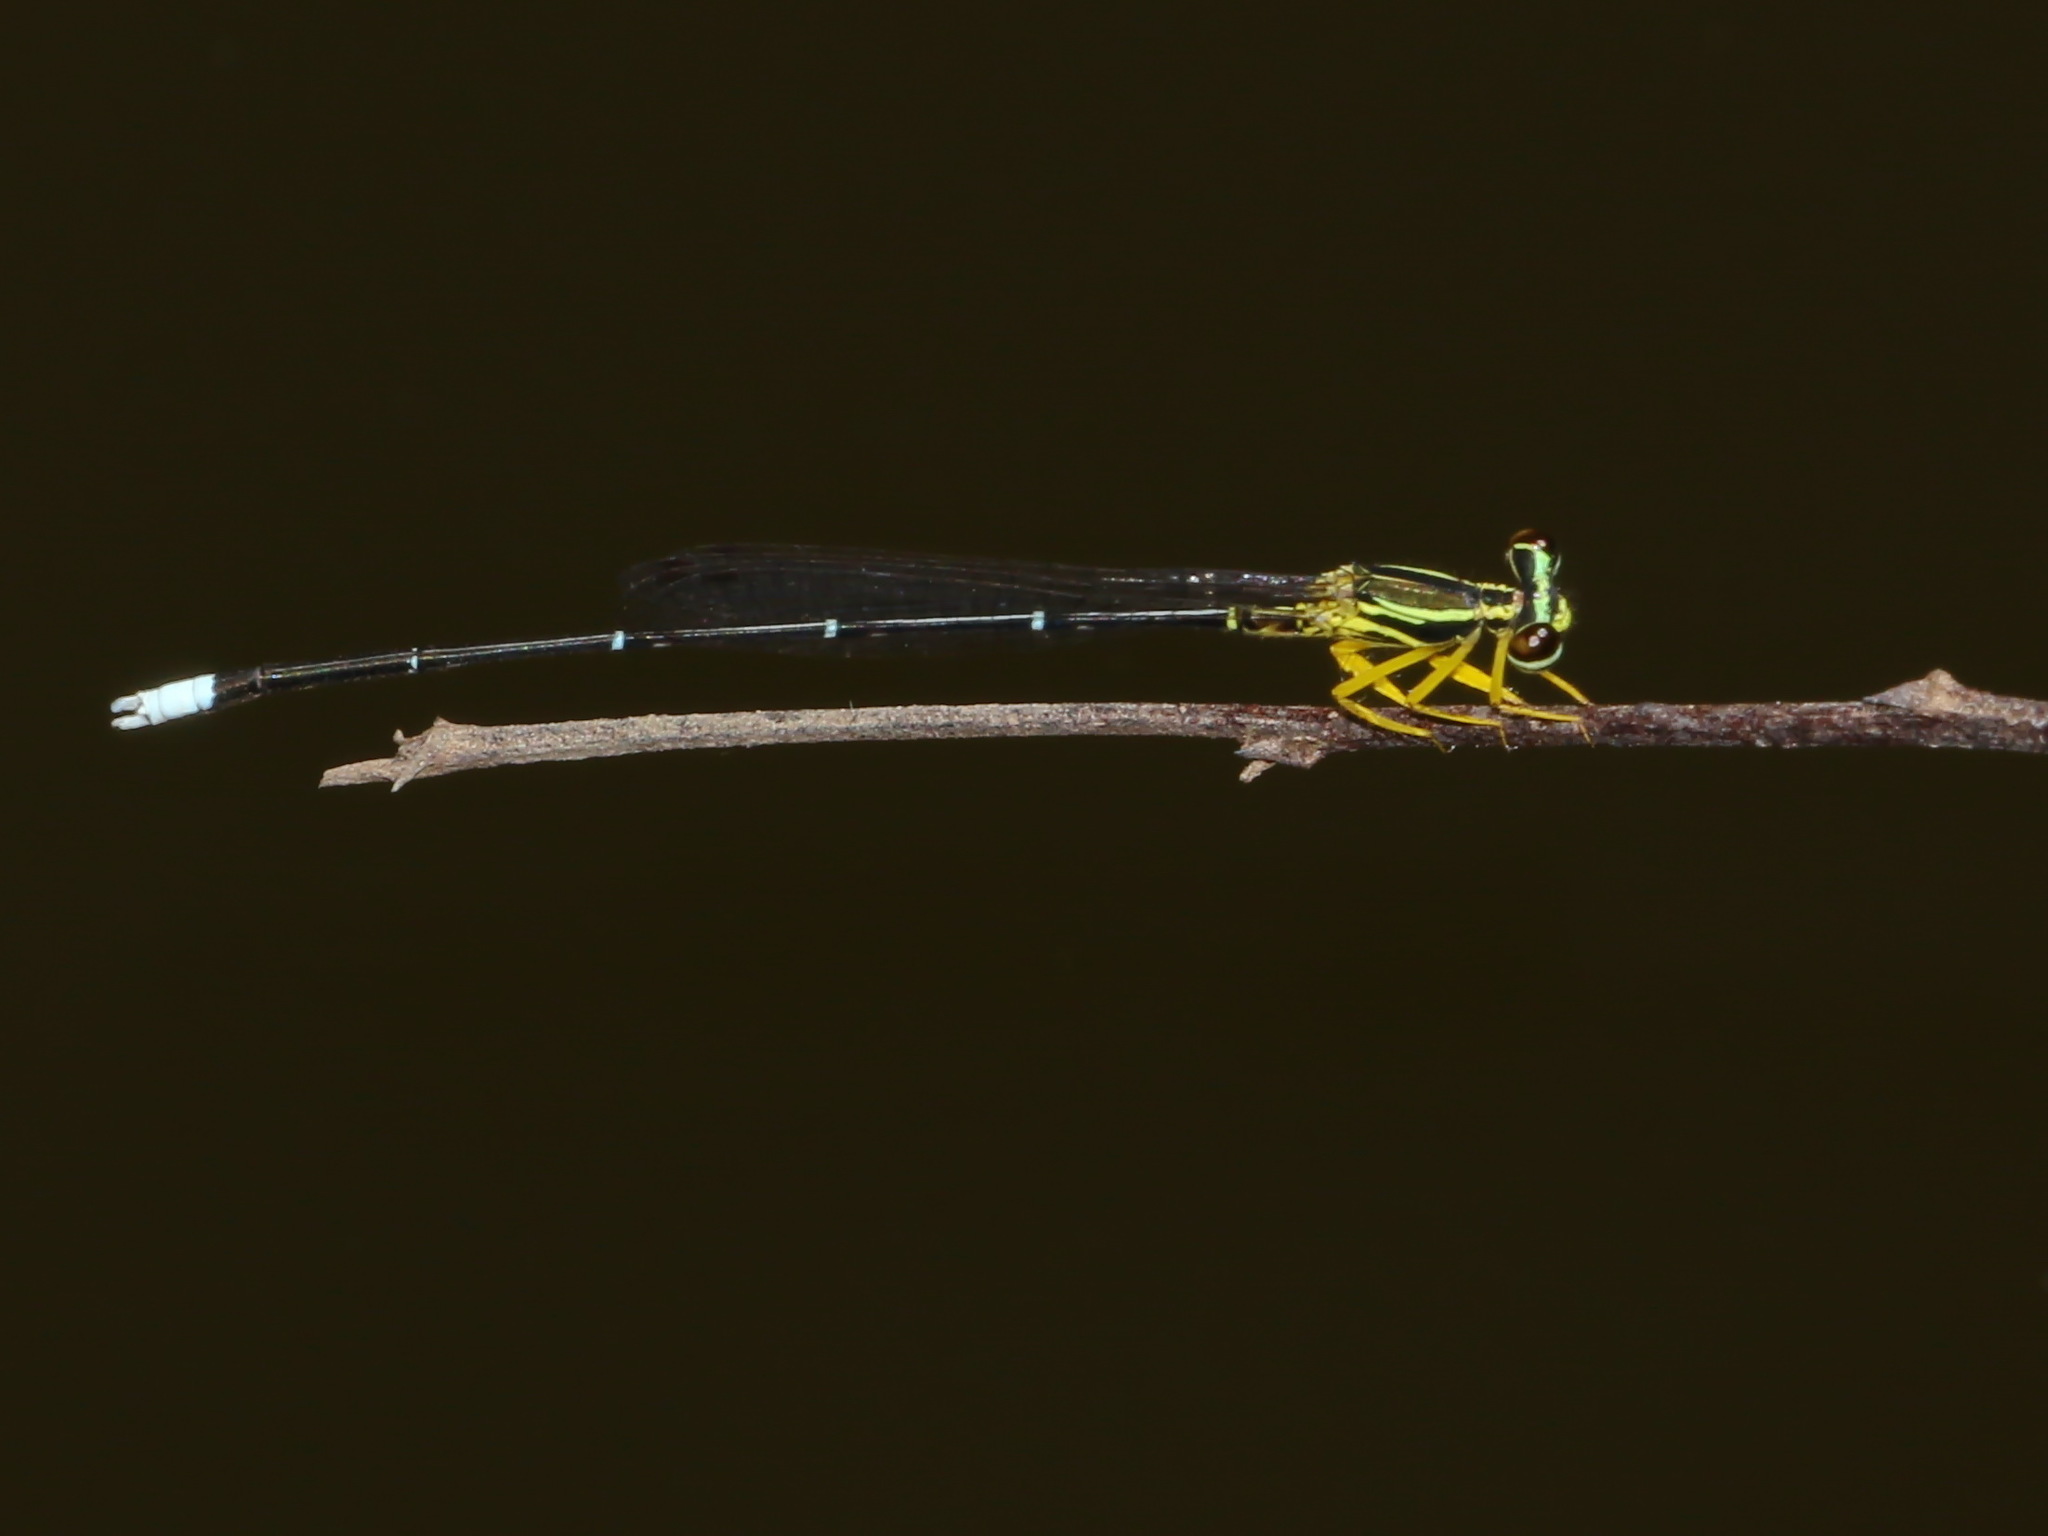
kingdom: Animalia
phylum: Arthropoda
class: Insecta
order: Odonata
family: Platycnemididae
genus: Copera
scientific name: Copera marginipes
